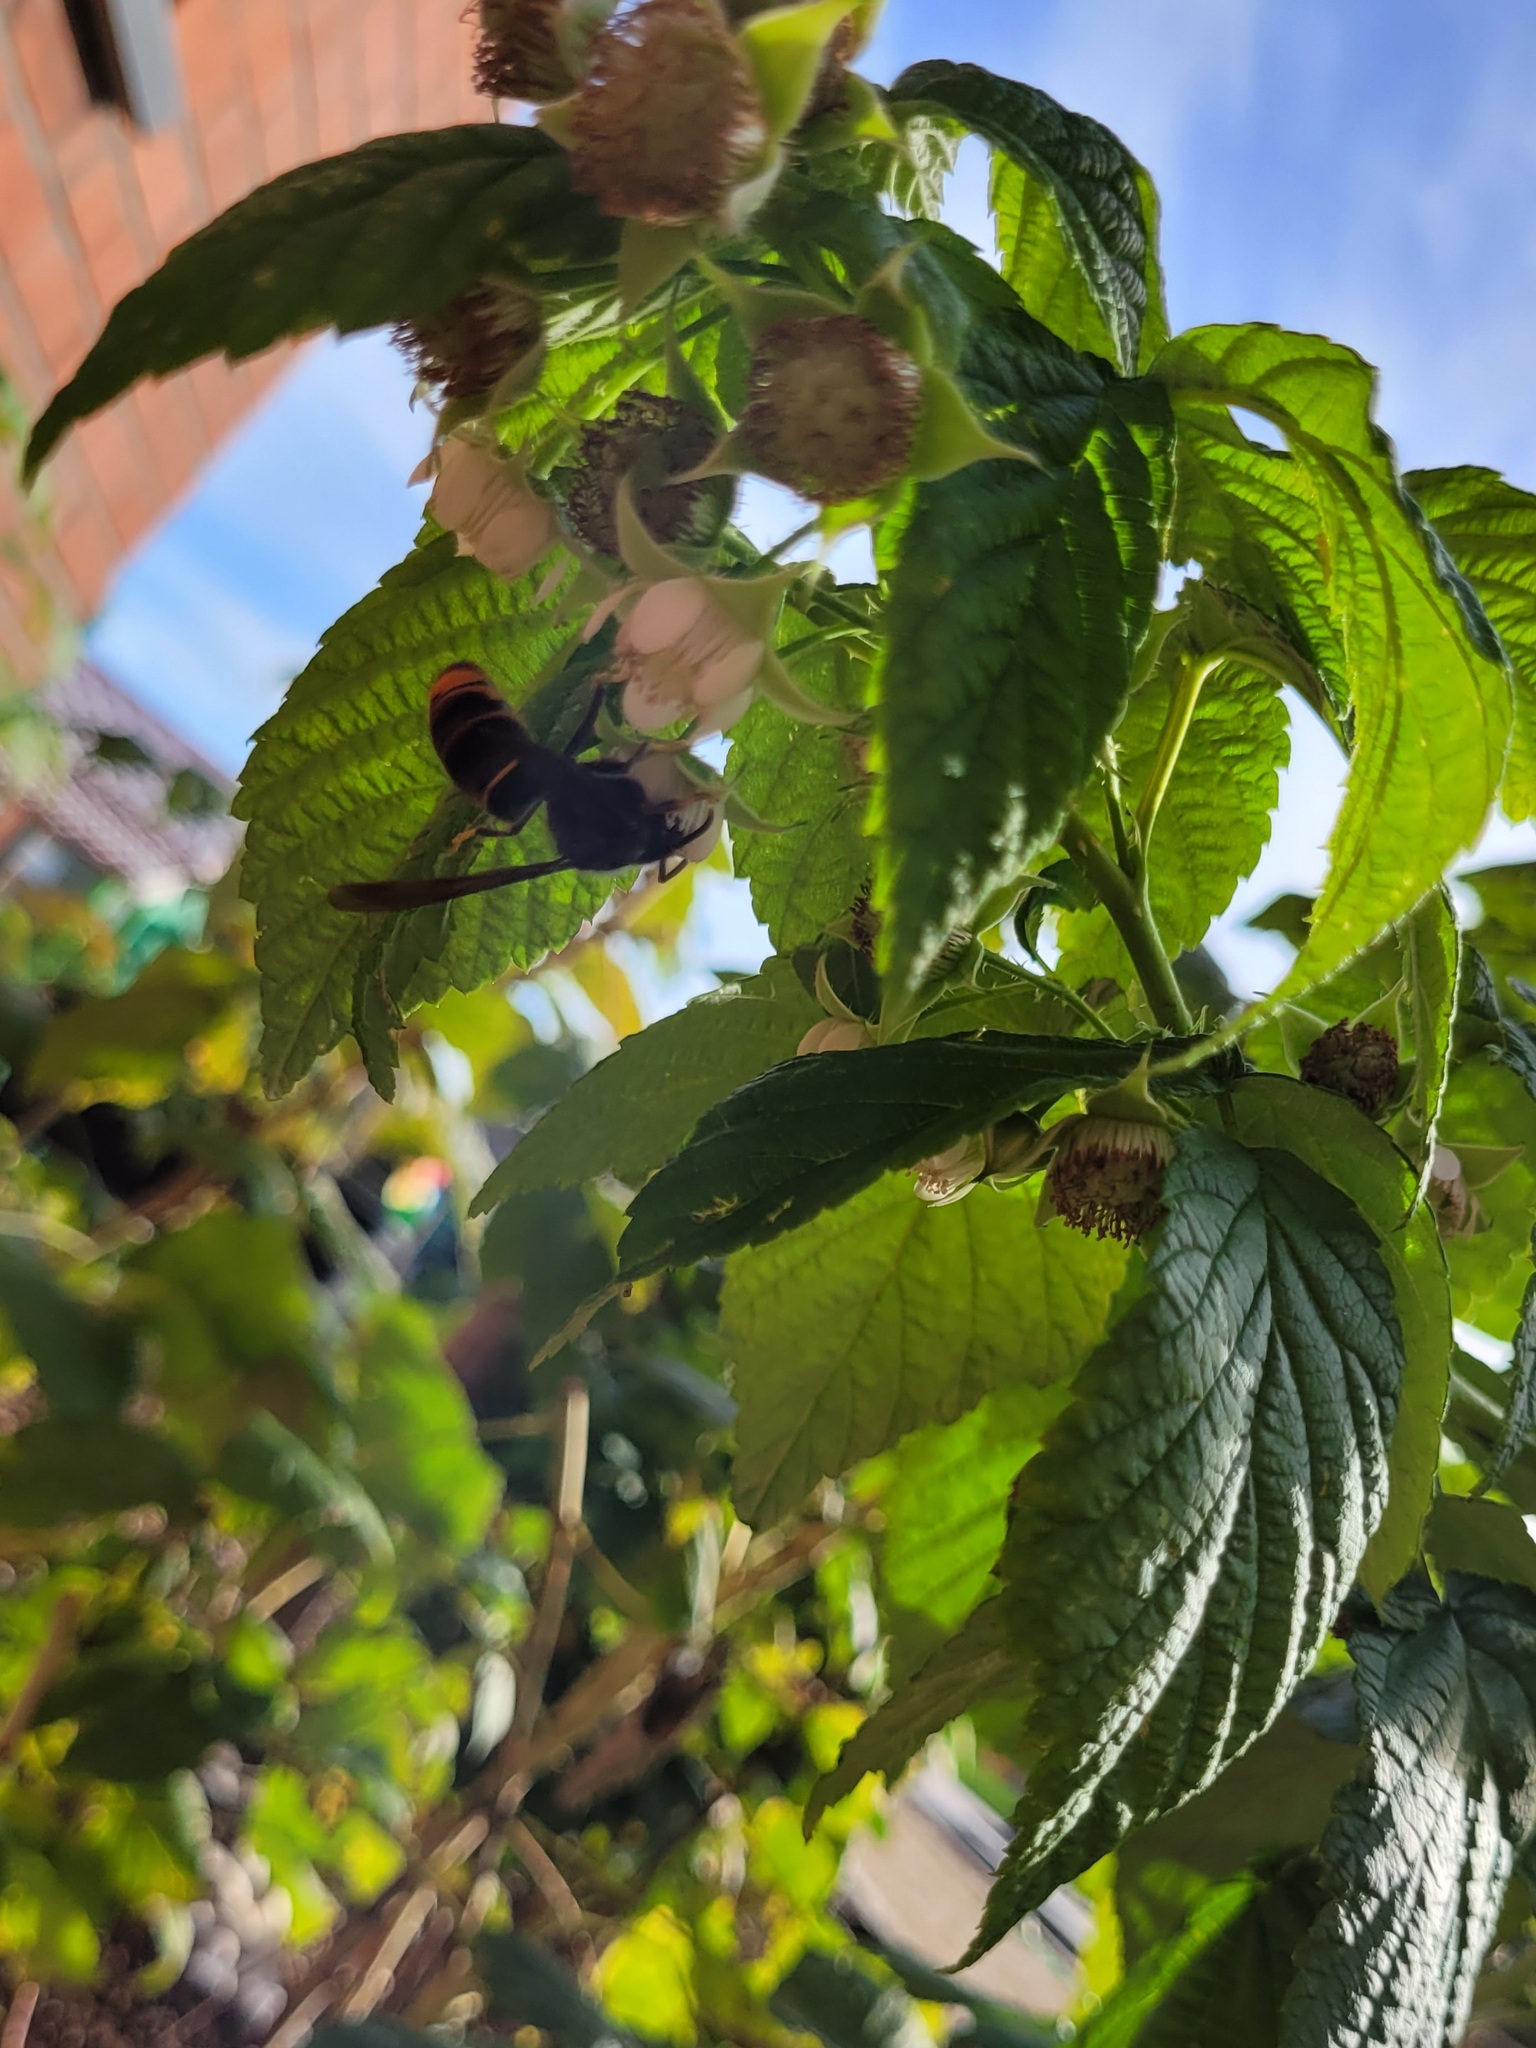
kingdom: Animalia
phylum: Arthropoda
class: Insecta
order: Hymenoptera
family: Vespidae
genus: Vespa
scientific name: Vespa velutina
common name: Asian hornet
